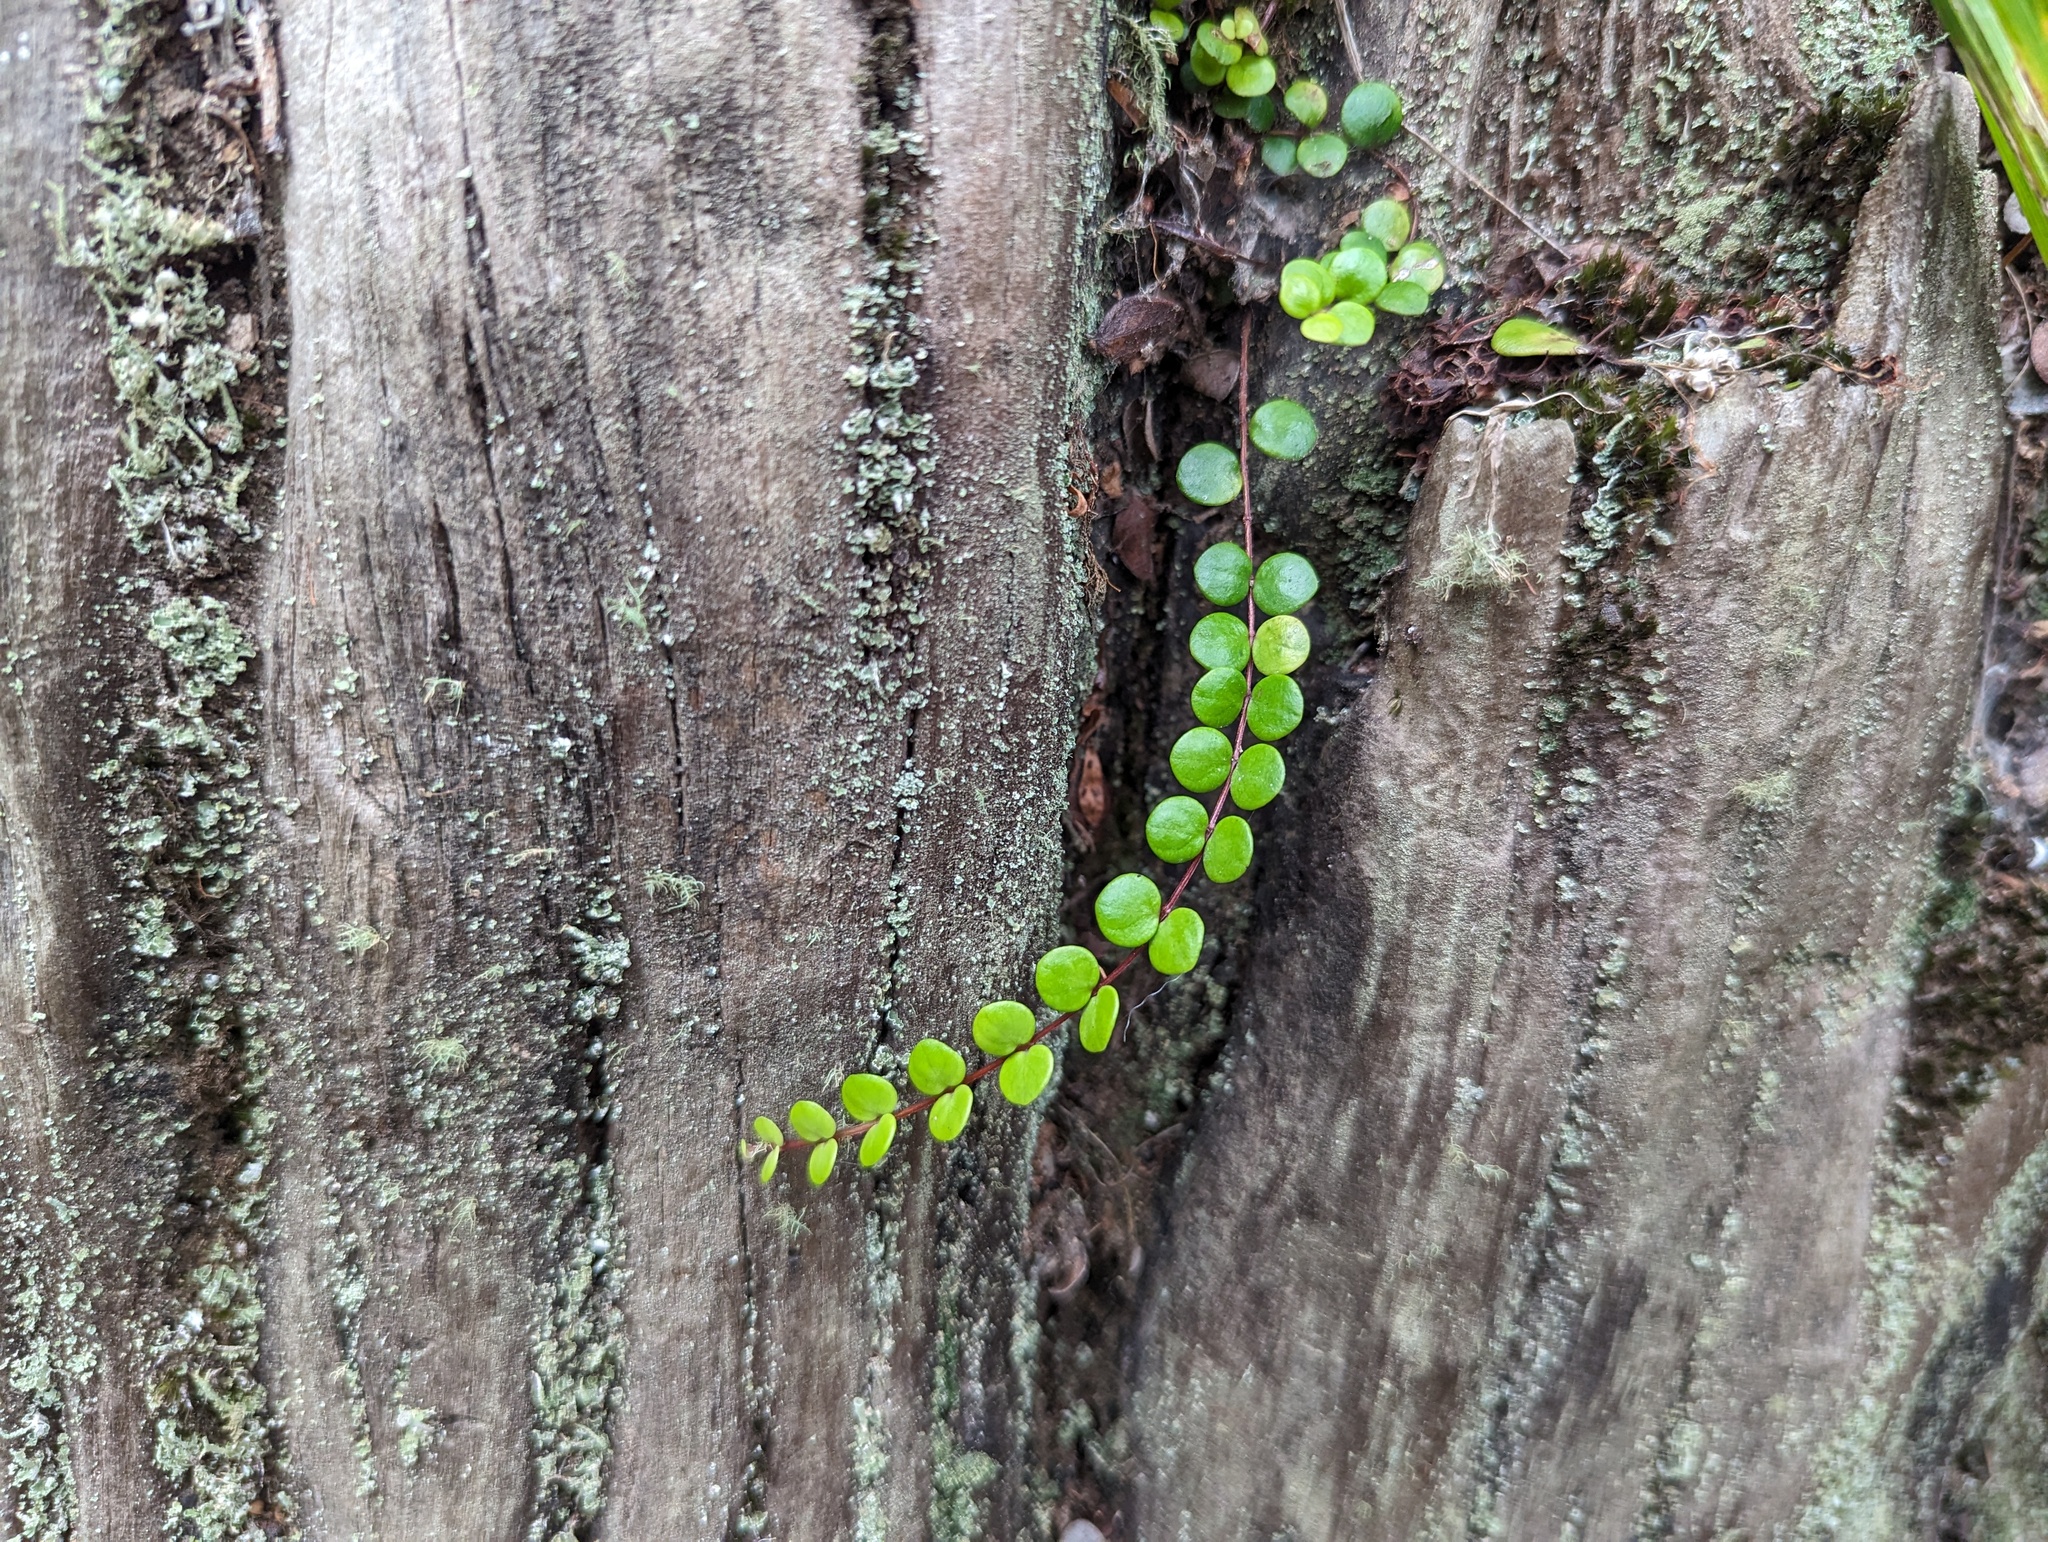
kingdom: Plantae
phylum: Tracheophyta
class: Magnoliopsida
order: Myrtales
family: Myrtaceae
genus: Metrosideros
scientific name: Metrosideros perforata
